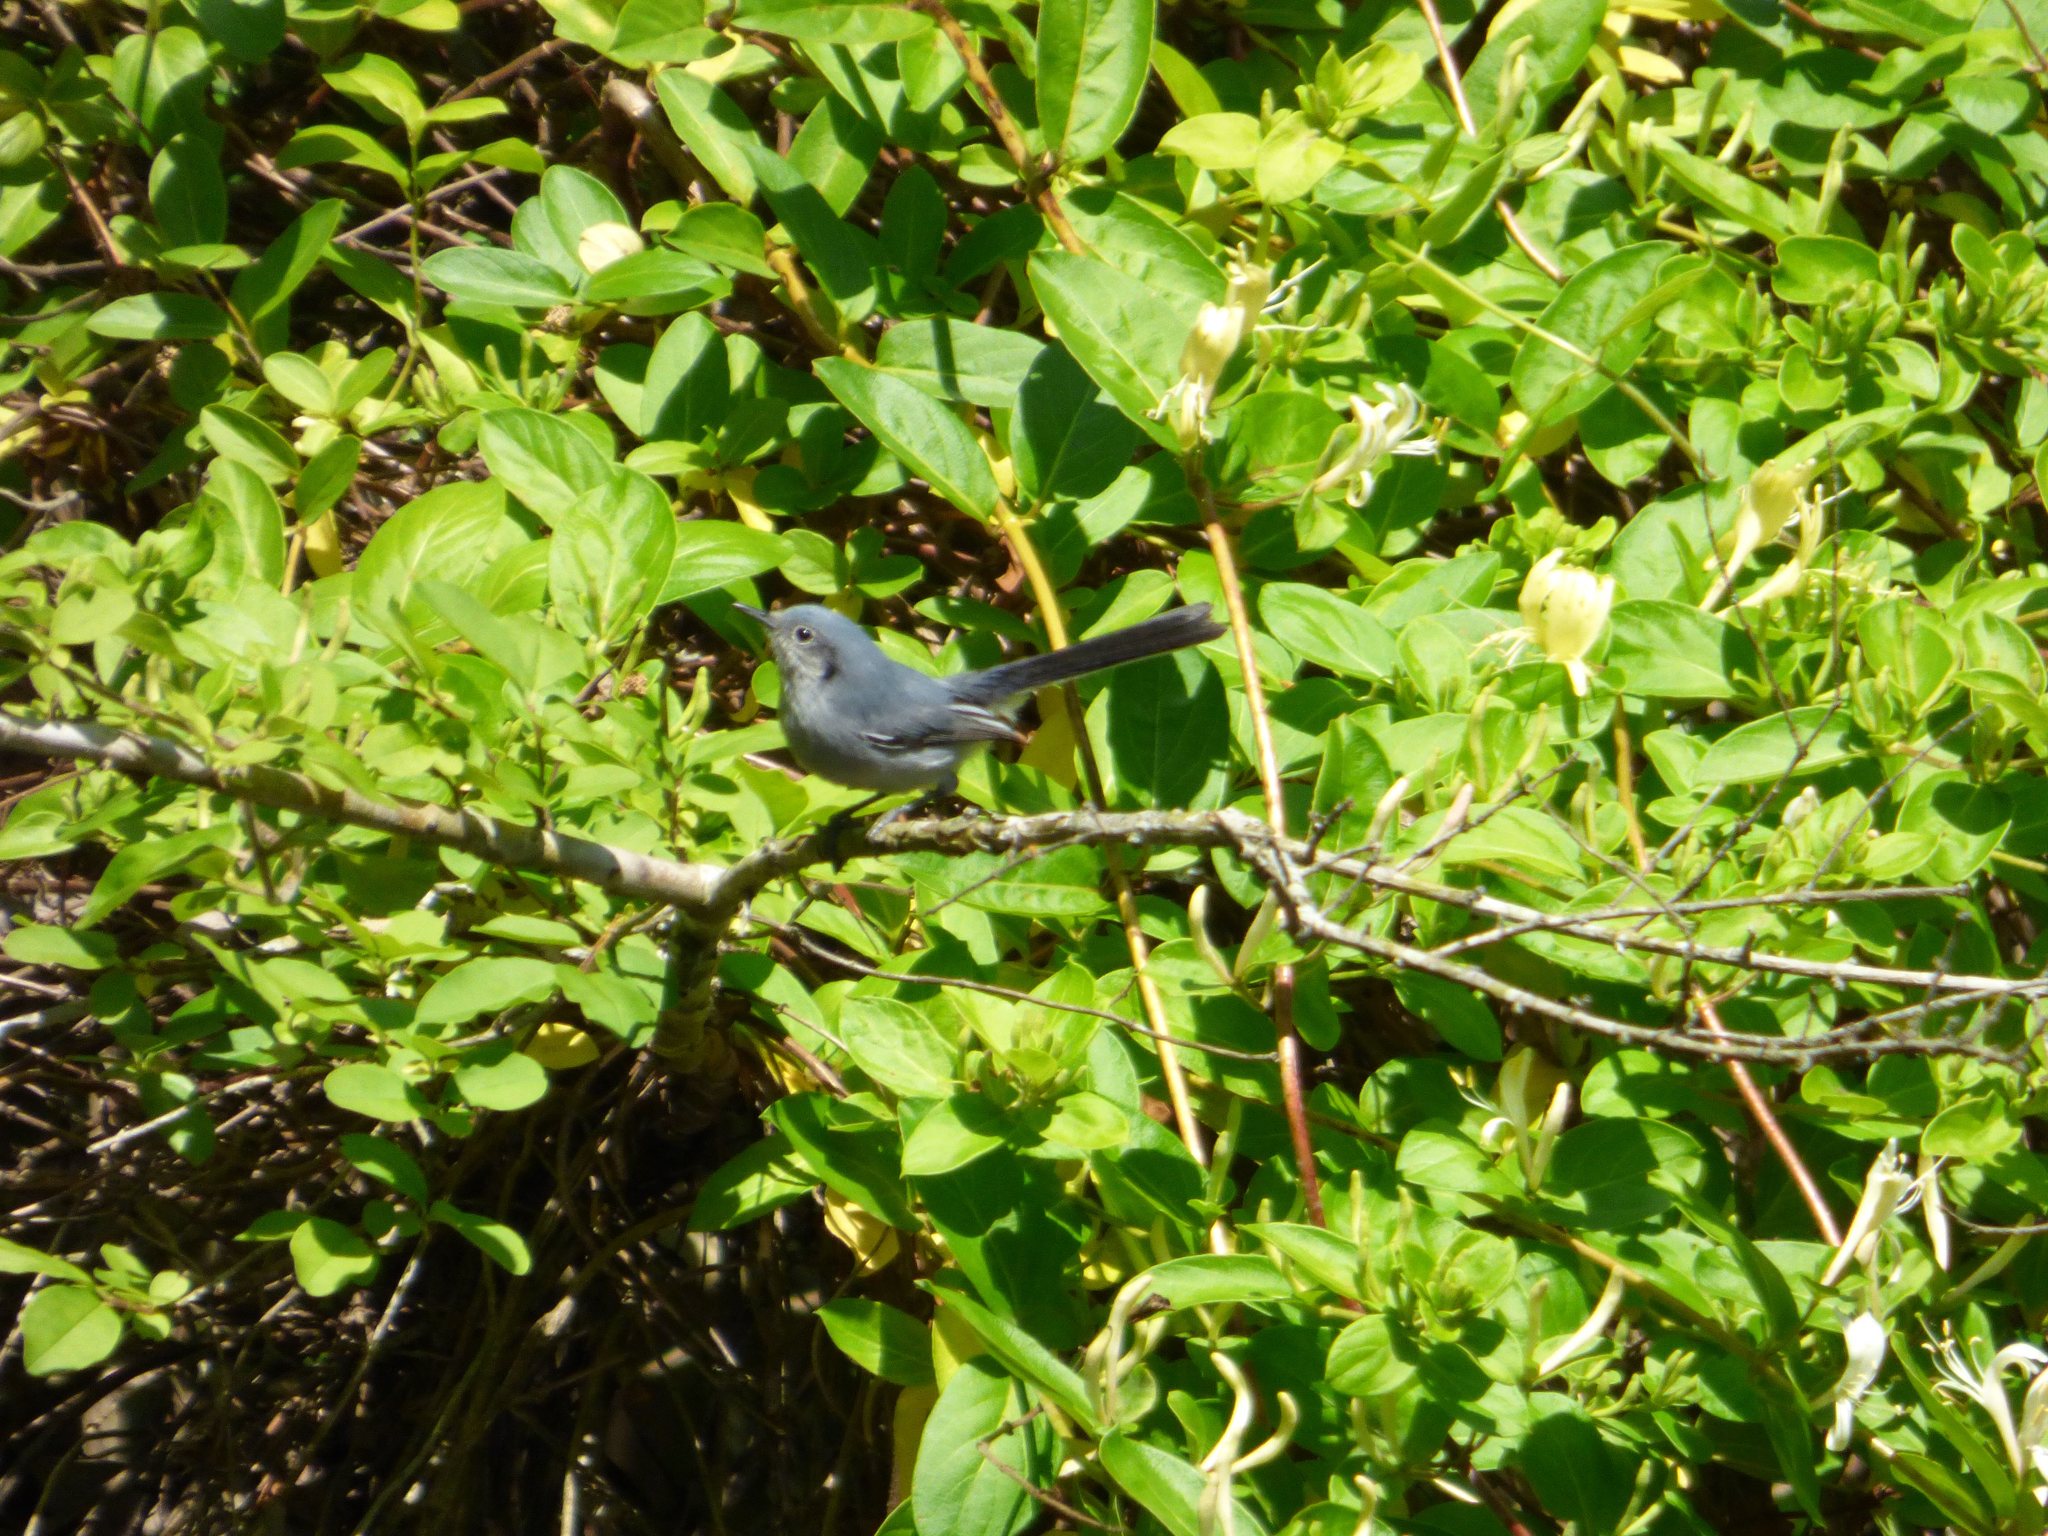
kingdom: Animalia
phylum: Chordata
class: Aves
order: Passeriformes
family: Polioptilidae
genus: Polioptila
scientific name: Polioptila dumicola
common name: Masked gnatcatcher
